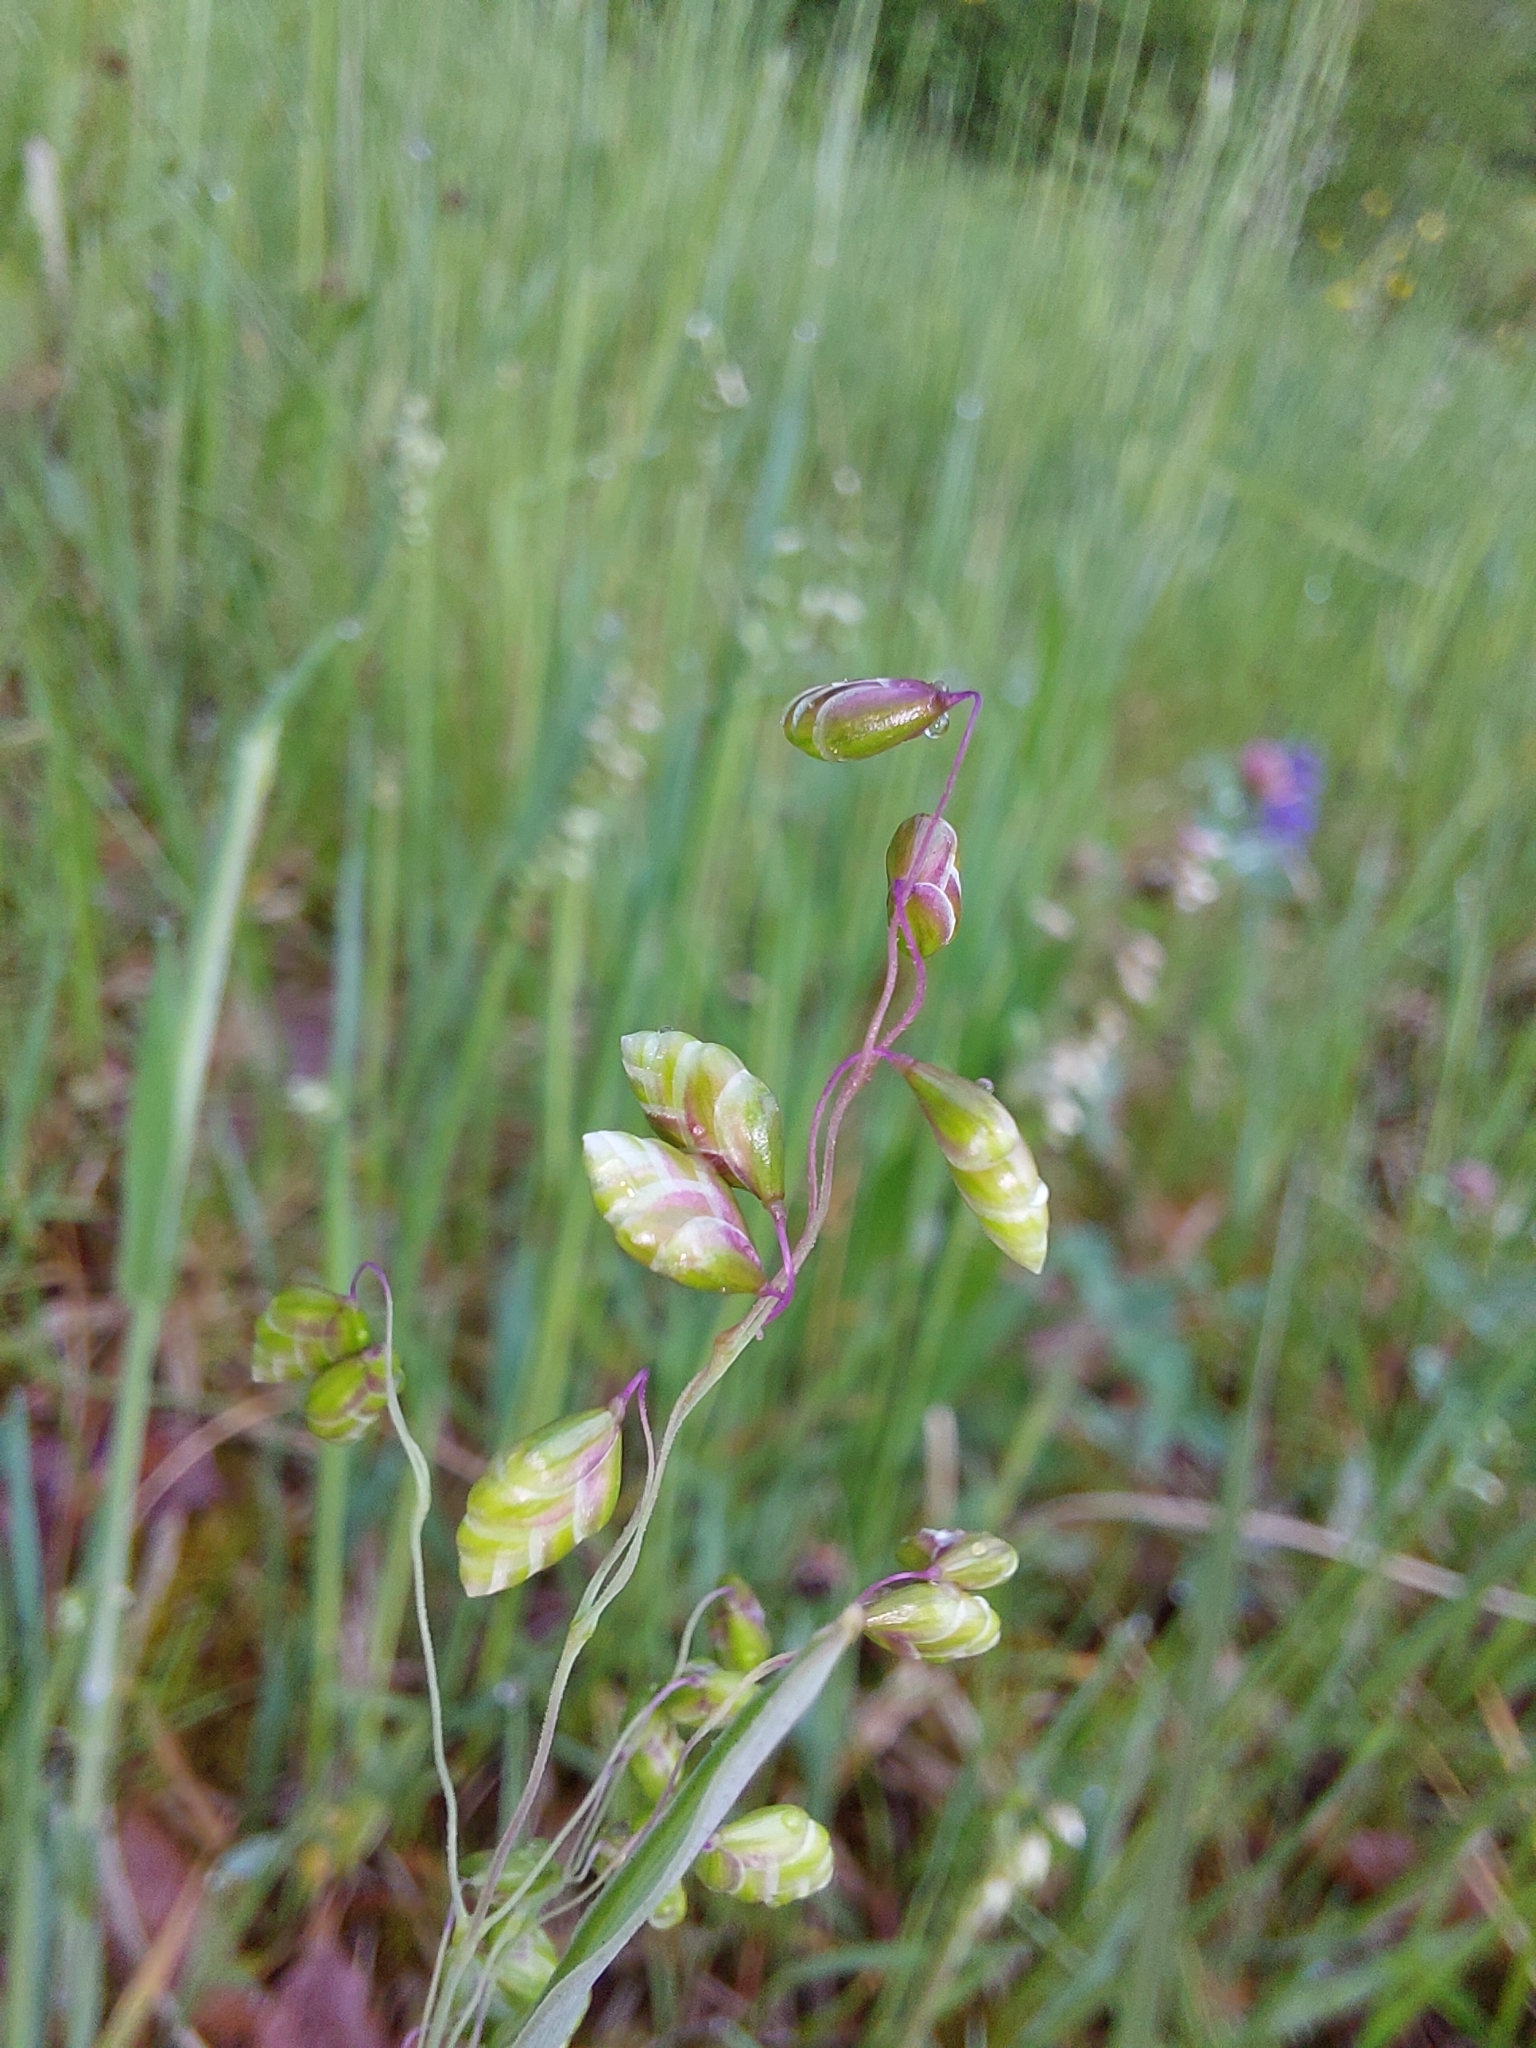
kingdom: Plantae
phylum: Tracheophyta
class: Liliopsida
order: Poales
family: Poaceae
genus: Briza
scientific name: Briza media
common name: Quaking grass
